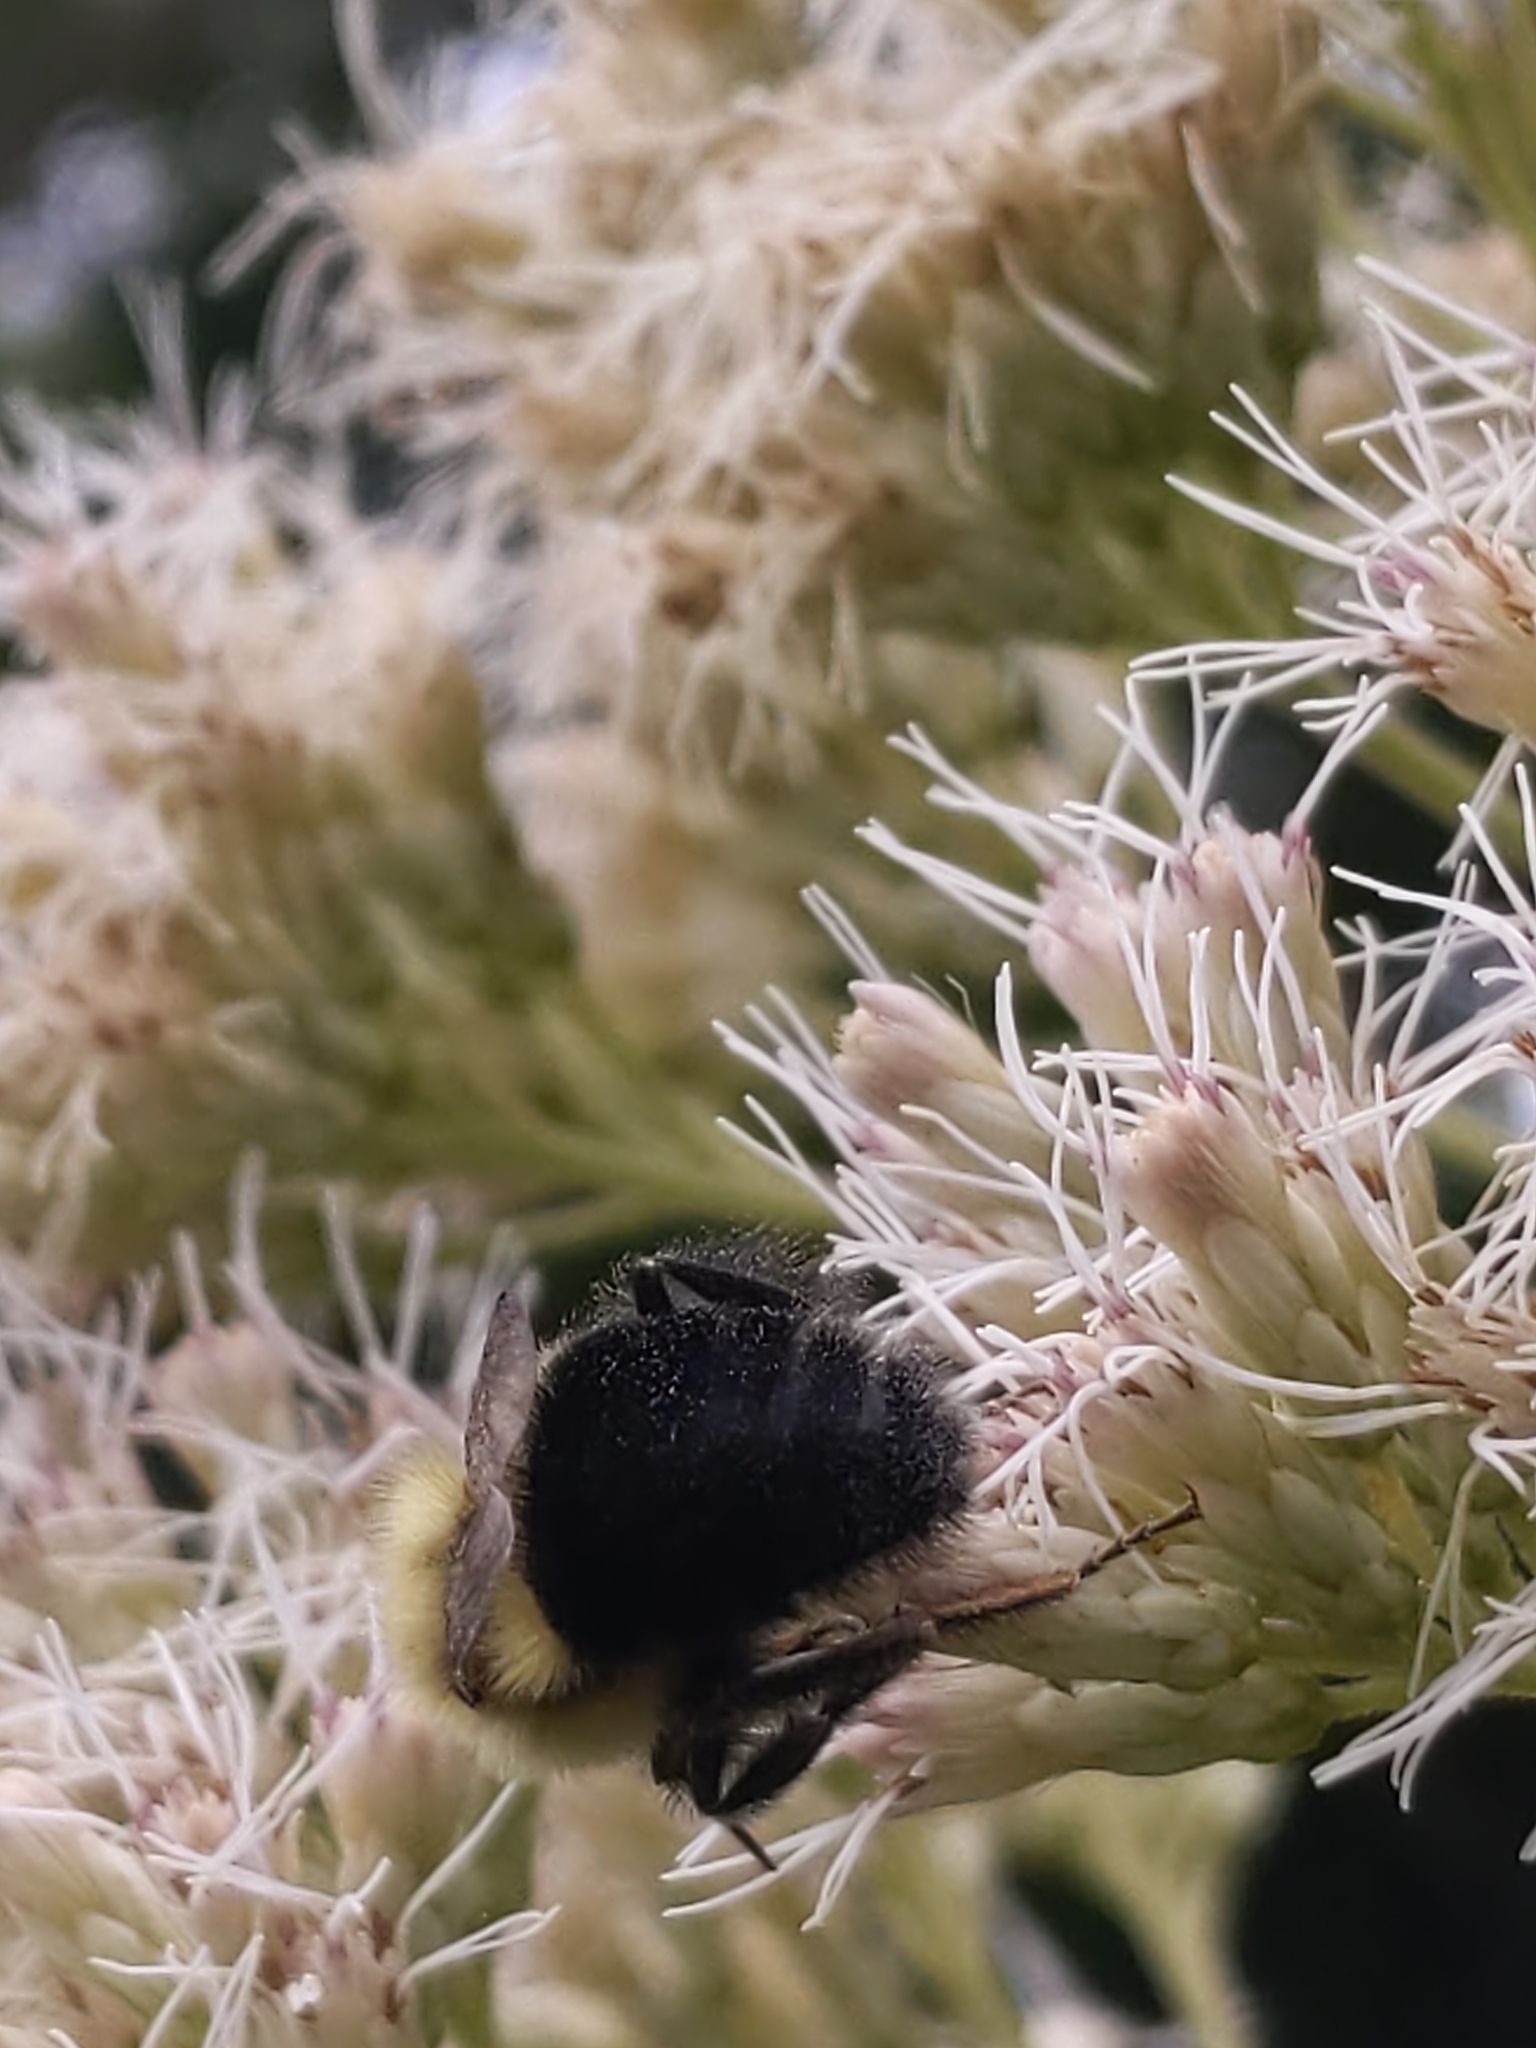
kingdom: Animalia
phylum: Arthropoda
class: Insecta
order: Hymenoptera
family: Apidae
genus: Bombus
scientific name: Bombus impatiens
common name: Common eastern bumble bee
